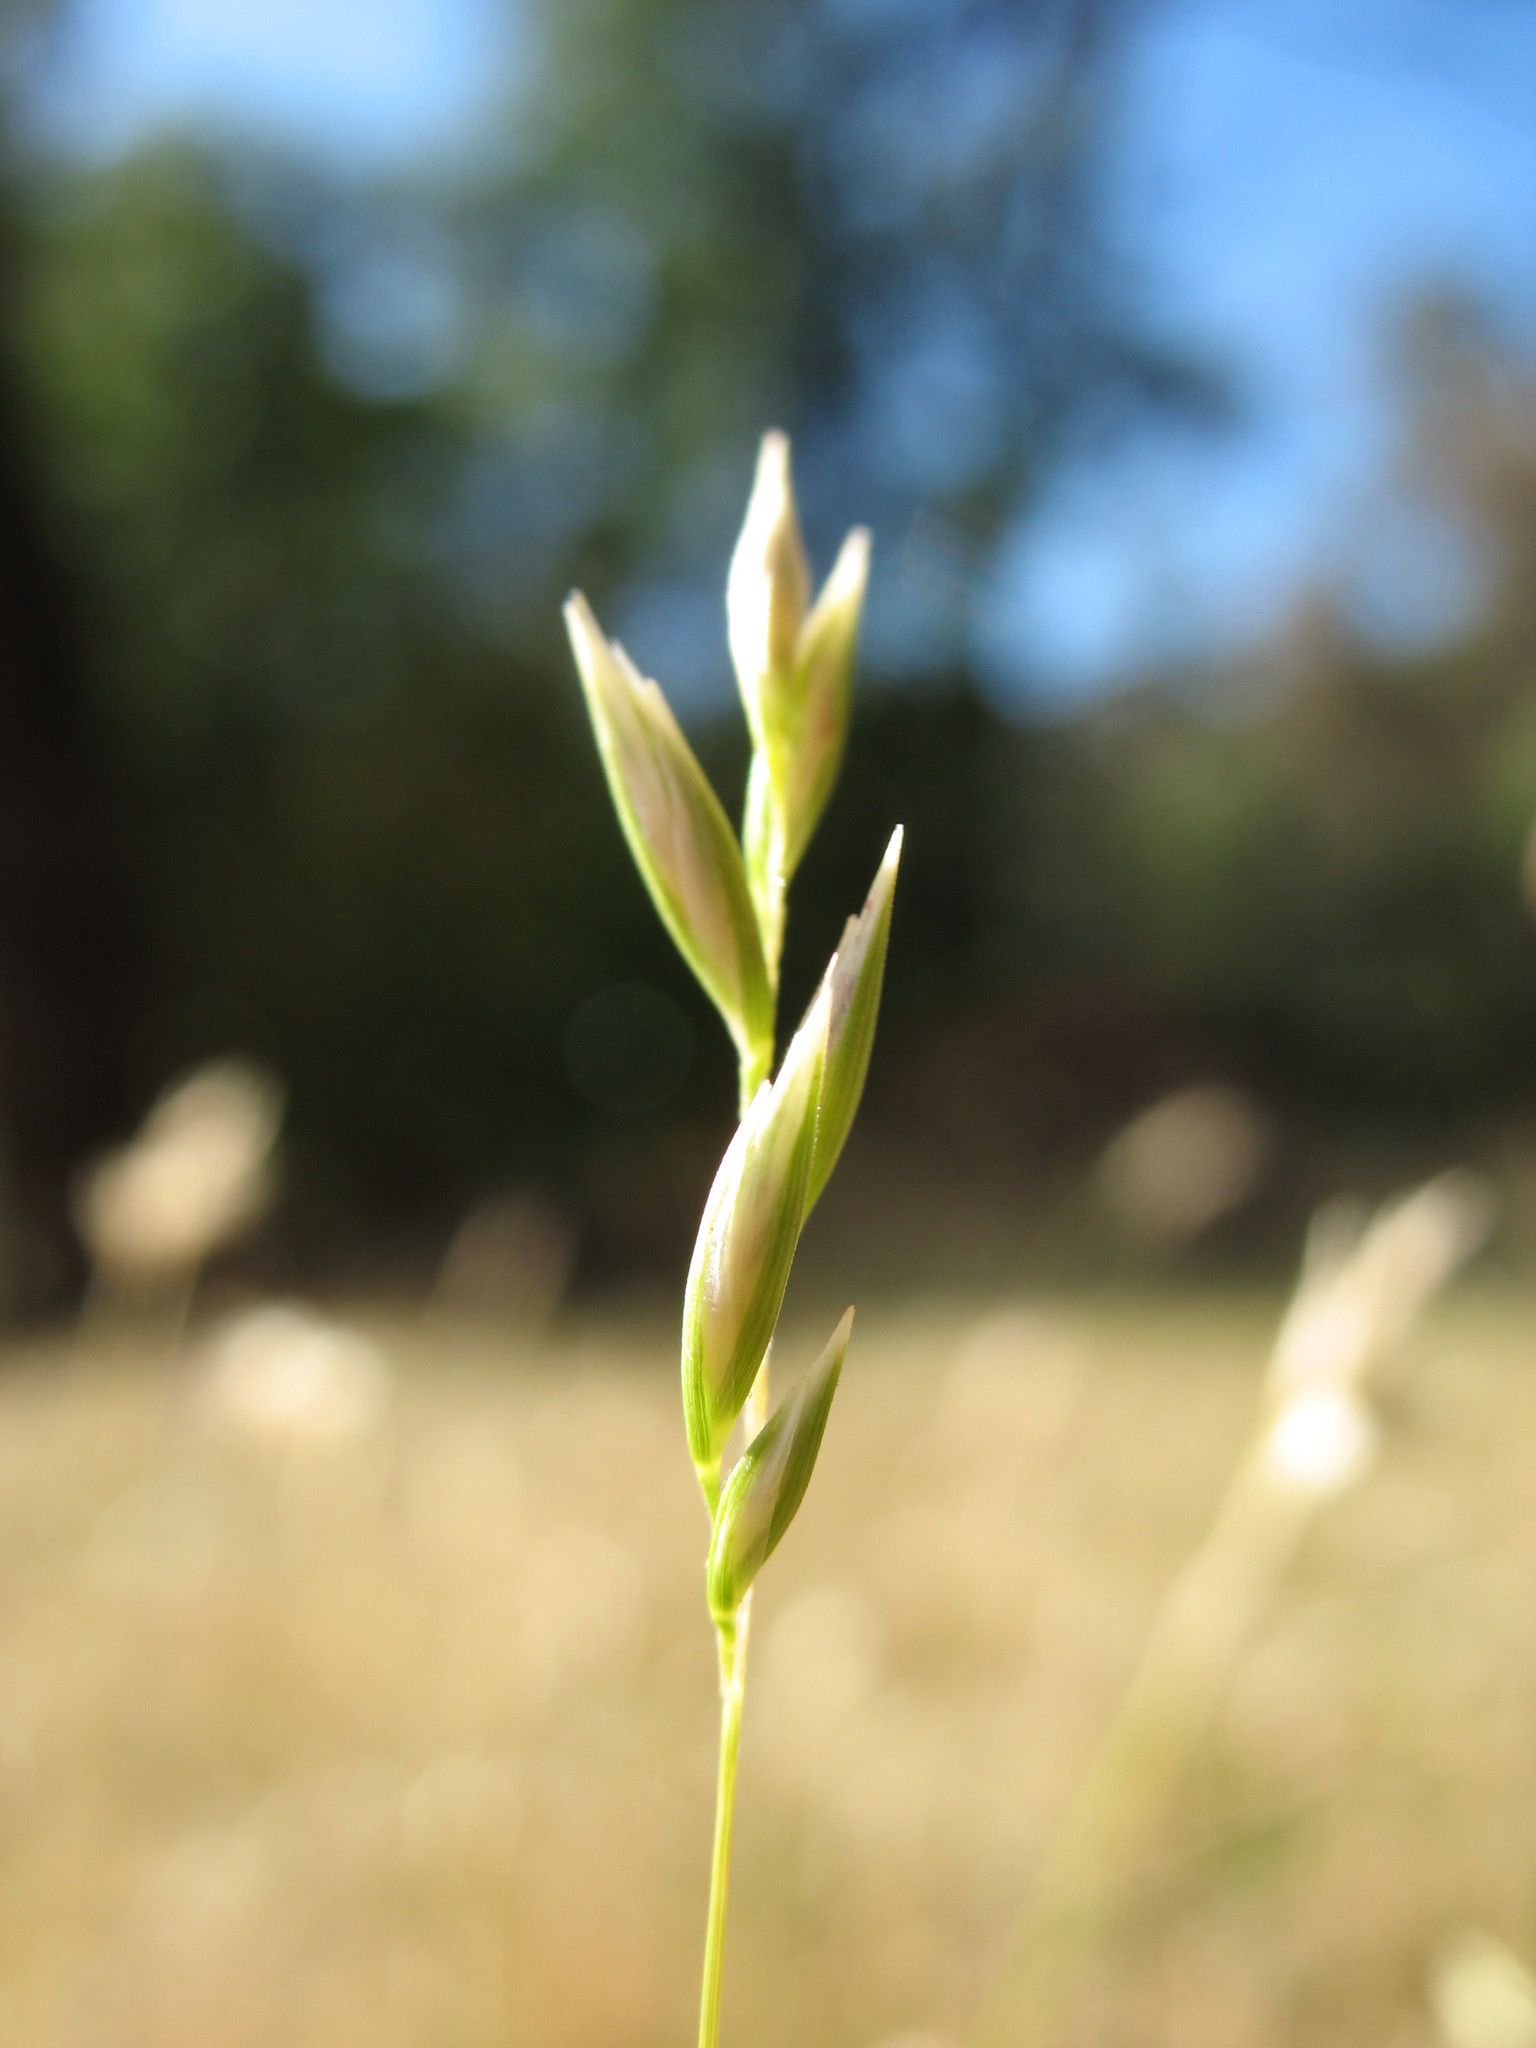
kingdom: Plantae
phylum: Tracheophyta
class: Liliopsida
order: Poales
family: Poaceae
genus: Rytidosperma
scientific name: Rytidosperma geniculatum
